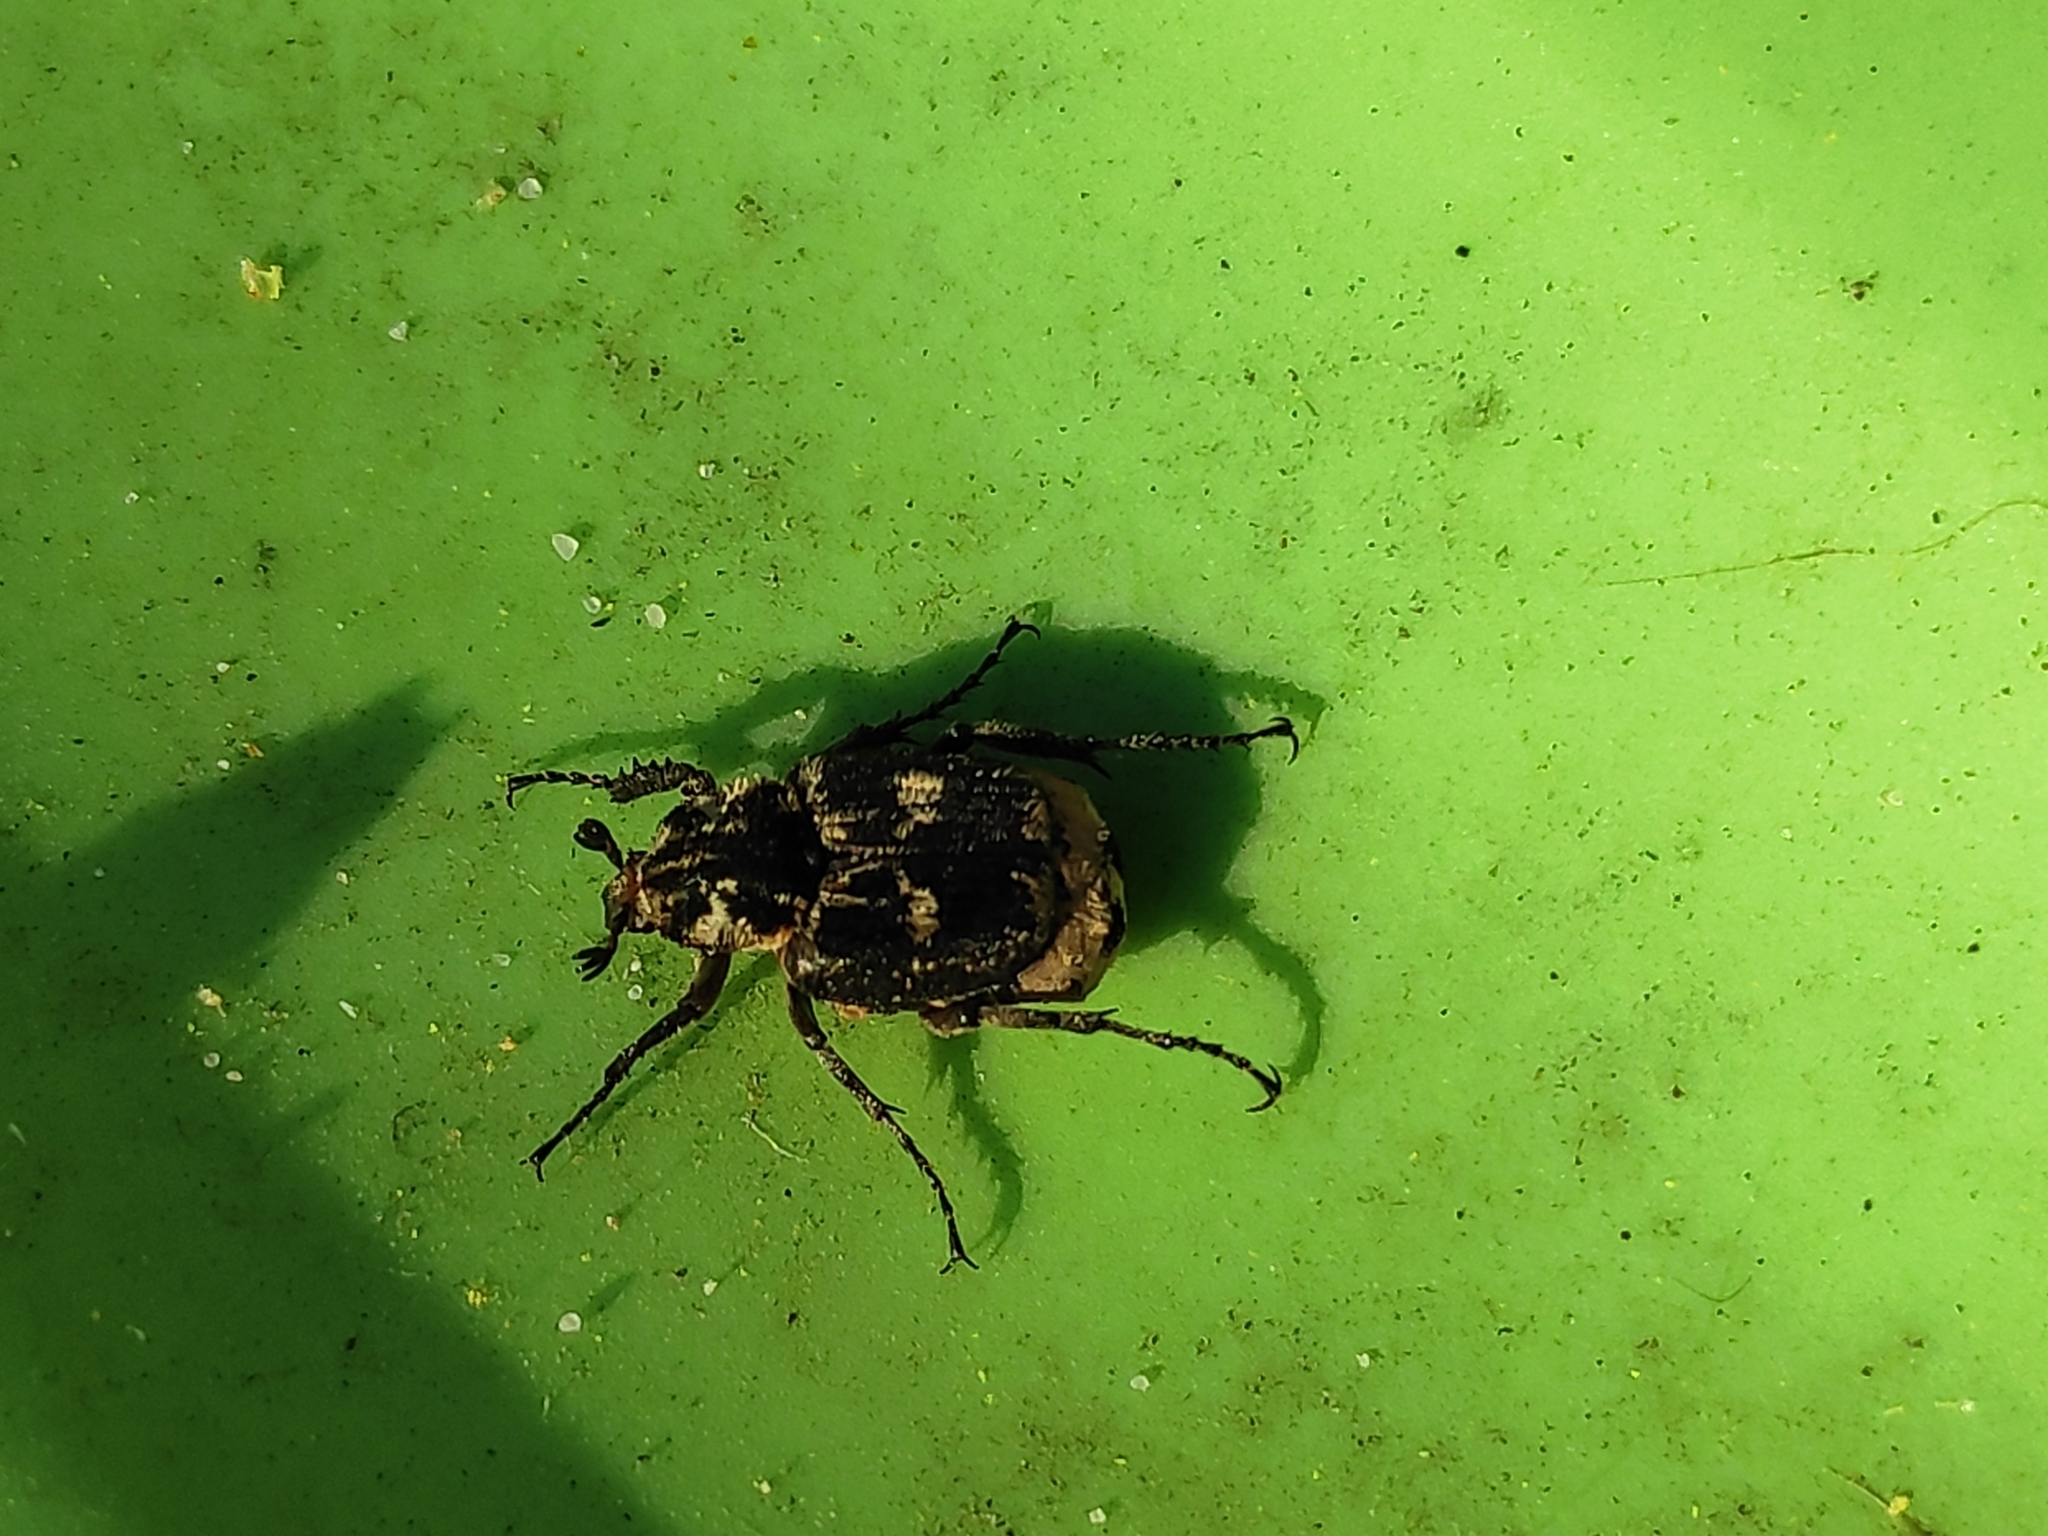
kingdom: Animalia
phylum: Arthropoda
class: Insecta
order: Coleoptera
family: Scarabaeidae
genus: Valgus
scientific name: Valgus hemipterus
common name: Bug flower chafer
